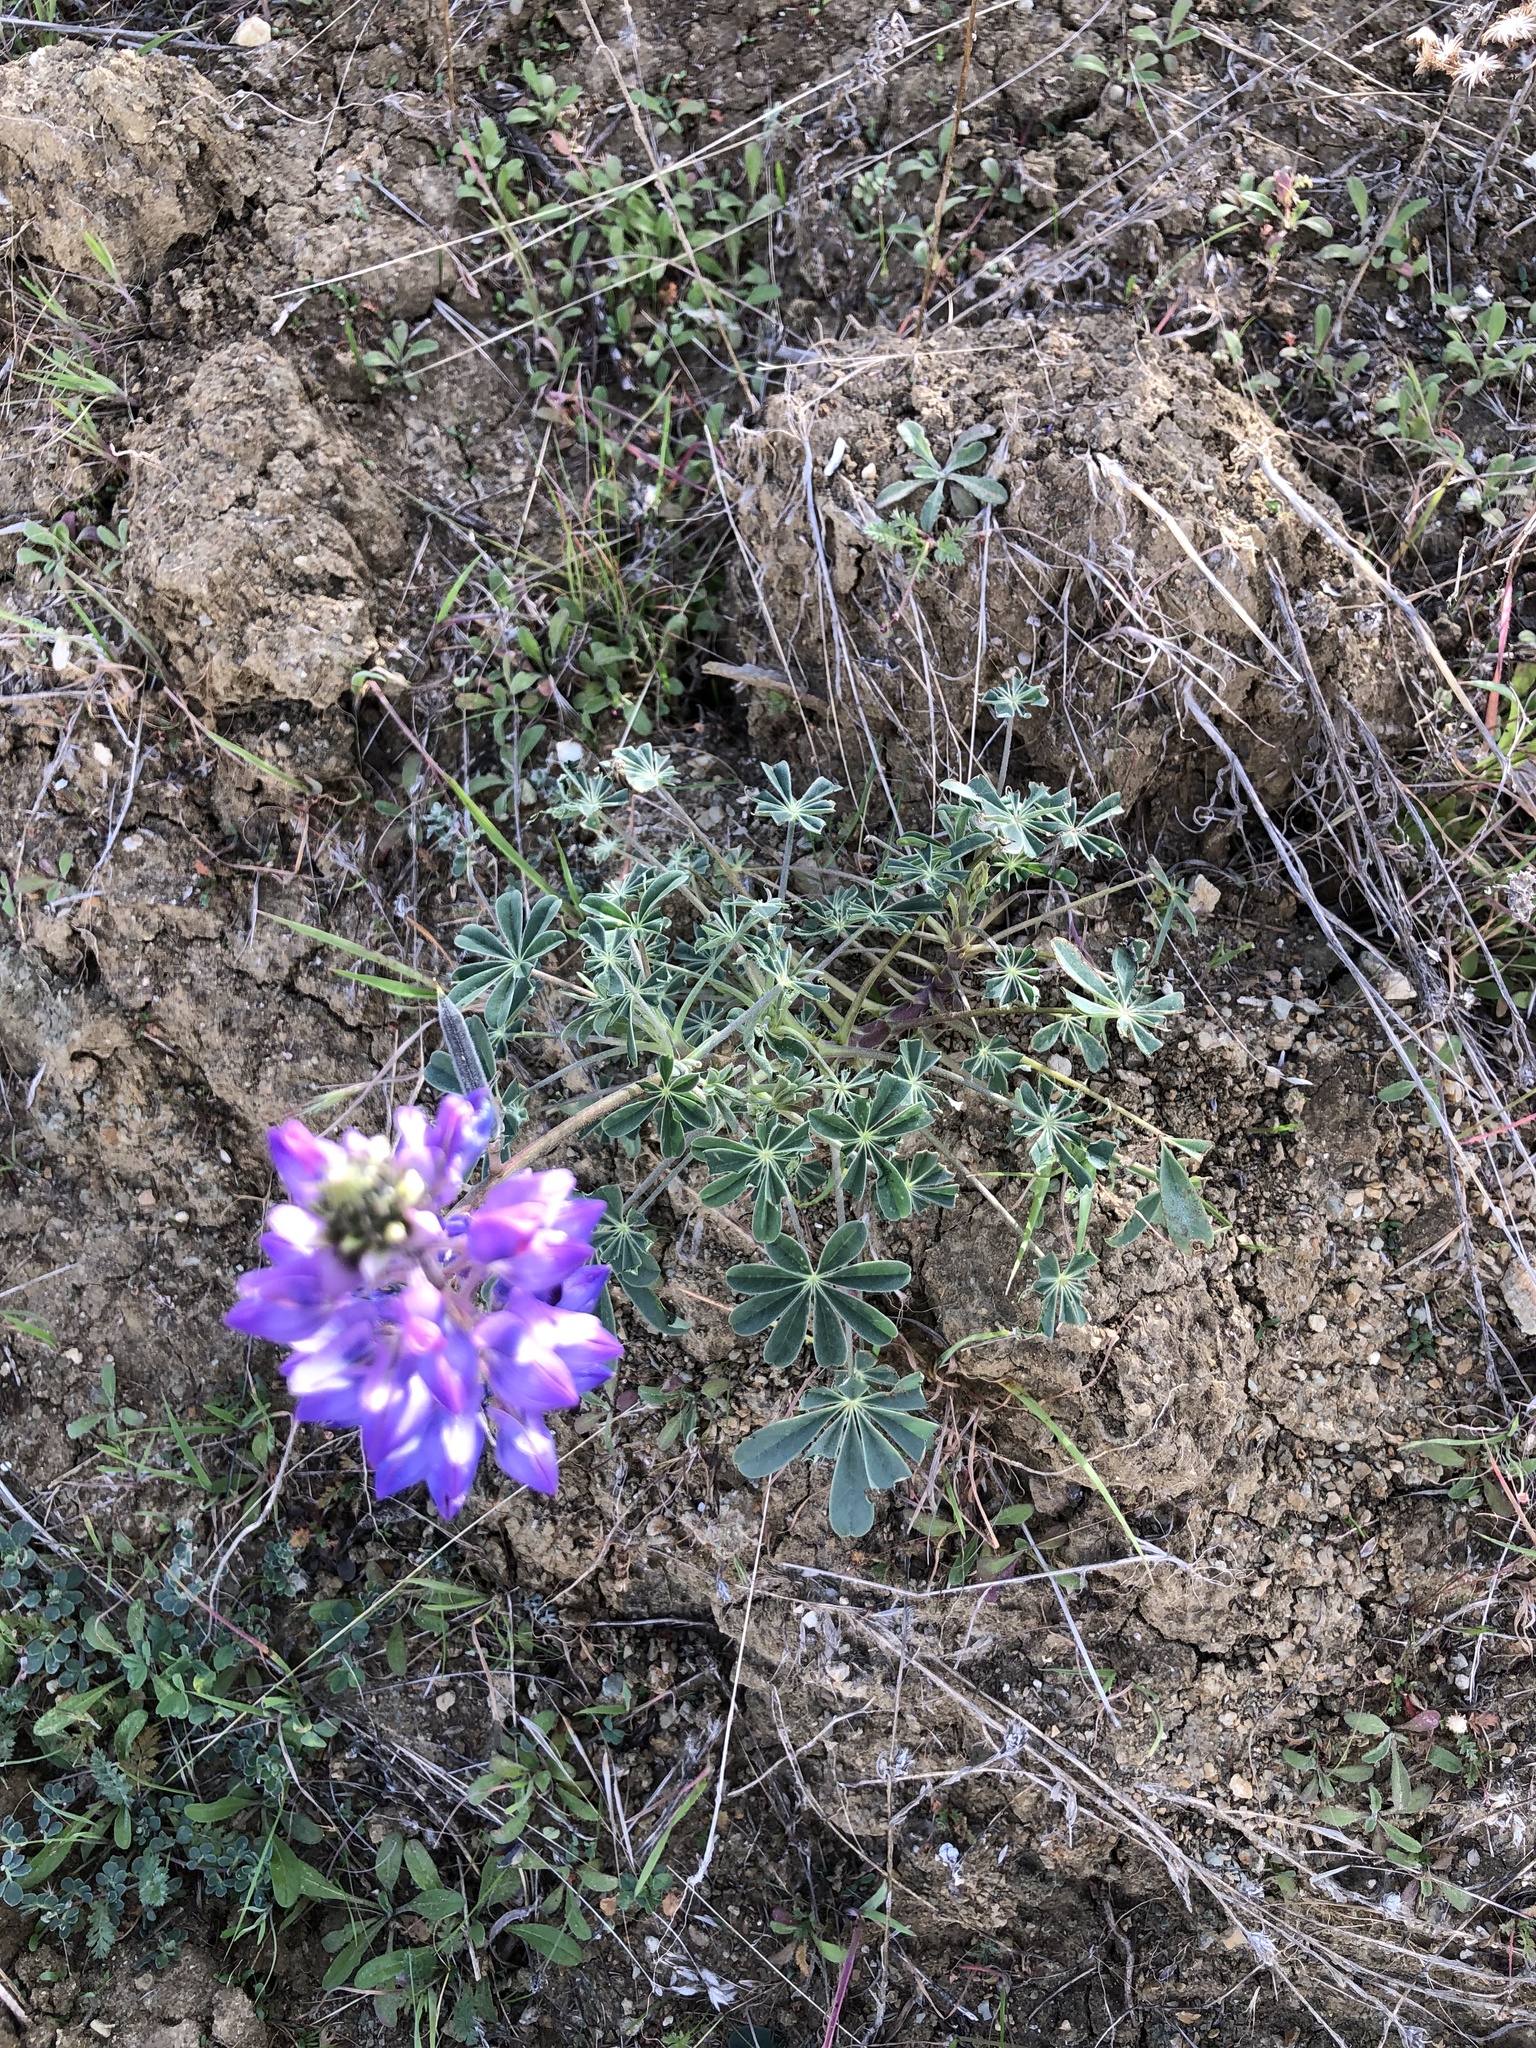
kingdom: Plantae
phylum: Tracheophyta
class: Magnoliopsida
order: Fabales
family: Fabaceae
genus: Lupinus
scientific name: Lupinus succulentus
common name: Arroyo lupine
